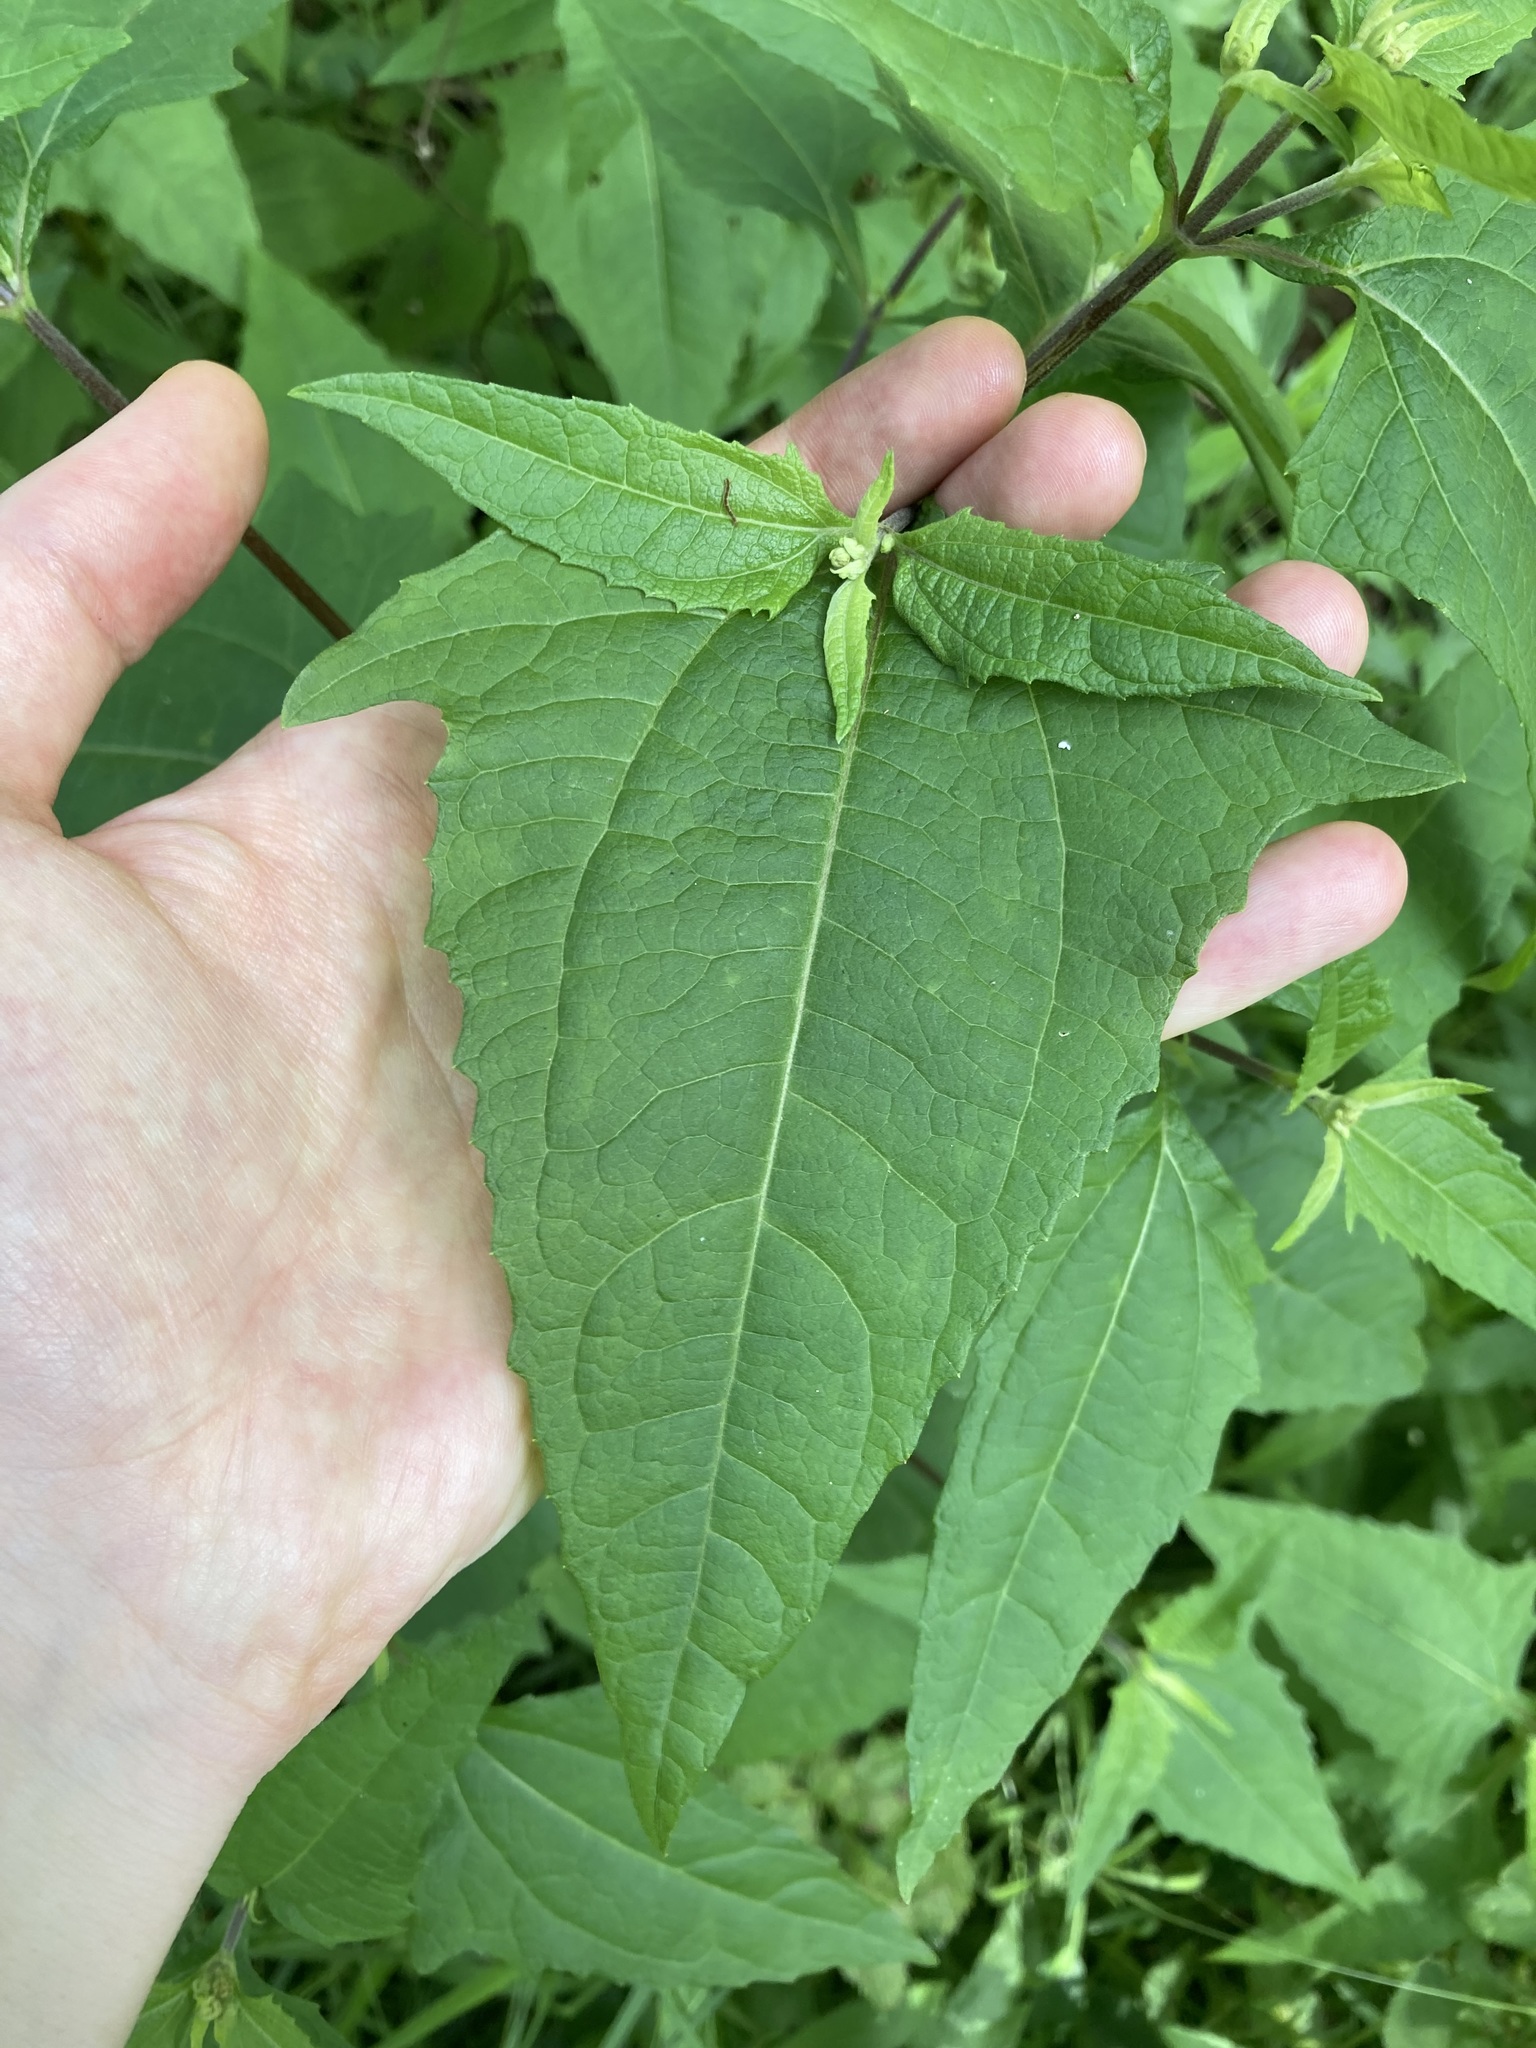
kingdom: Plantae
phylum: Tracheophyta
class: Magnoliopsida
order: Asterales
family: Asteraceae
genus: Sigesbeckia
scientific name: Sigesbeckia orientalis
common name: Eastern st paul's-wort
